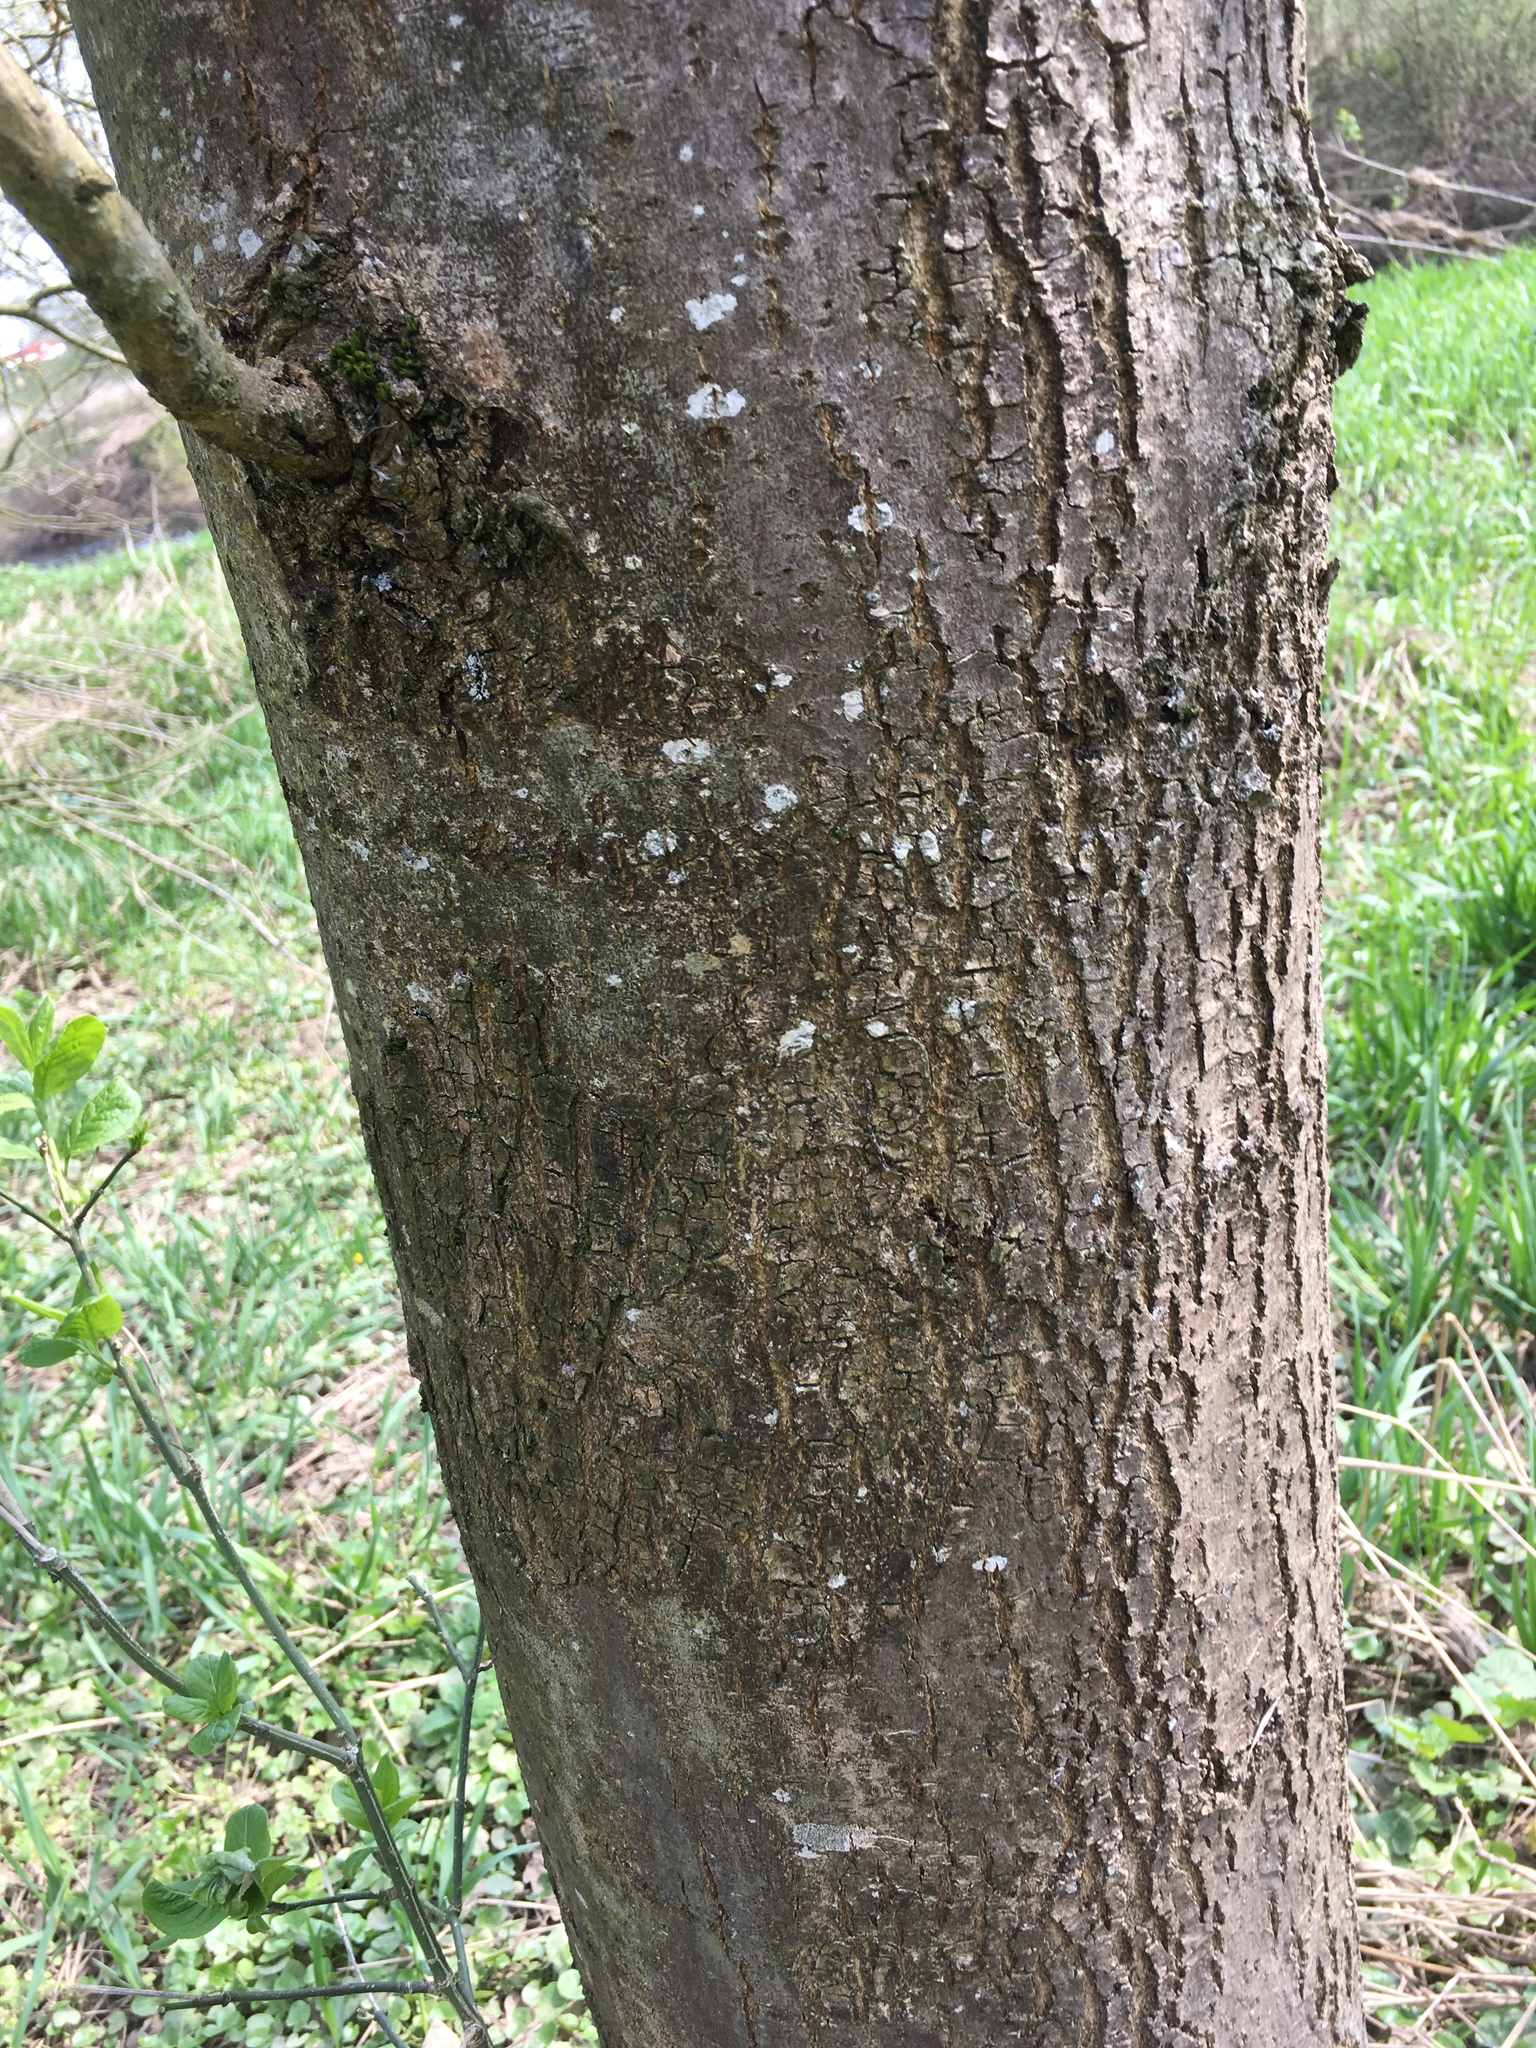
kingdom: Plantae
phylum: Tracheophyta
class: Magnoliopsida
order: Lamiales
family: Oleaceae
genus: Fraxinus
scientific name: Fraxinus excelsior
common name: European ash
